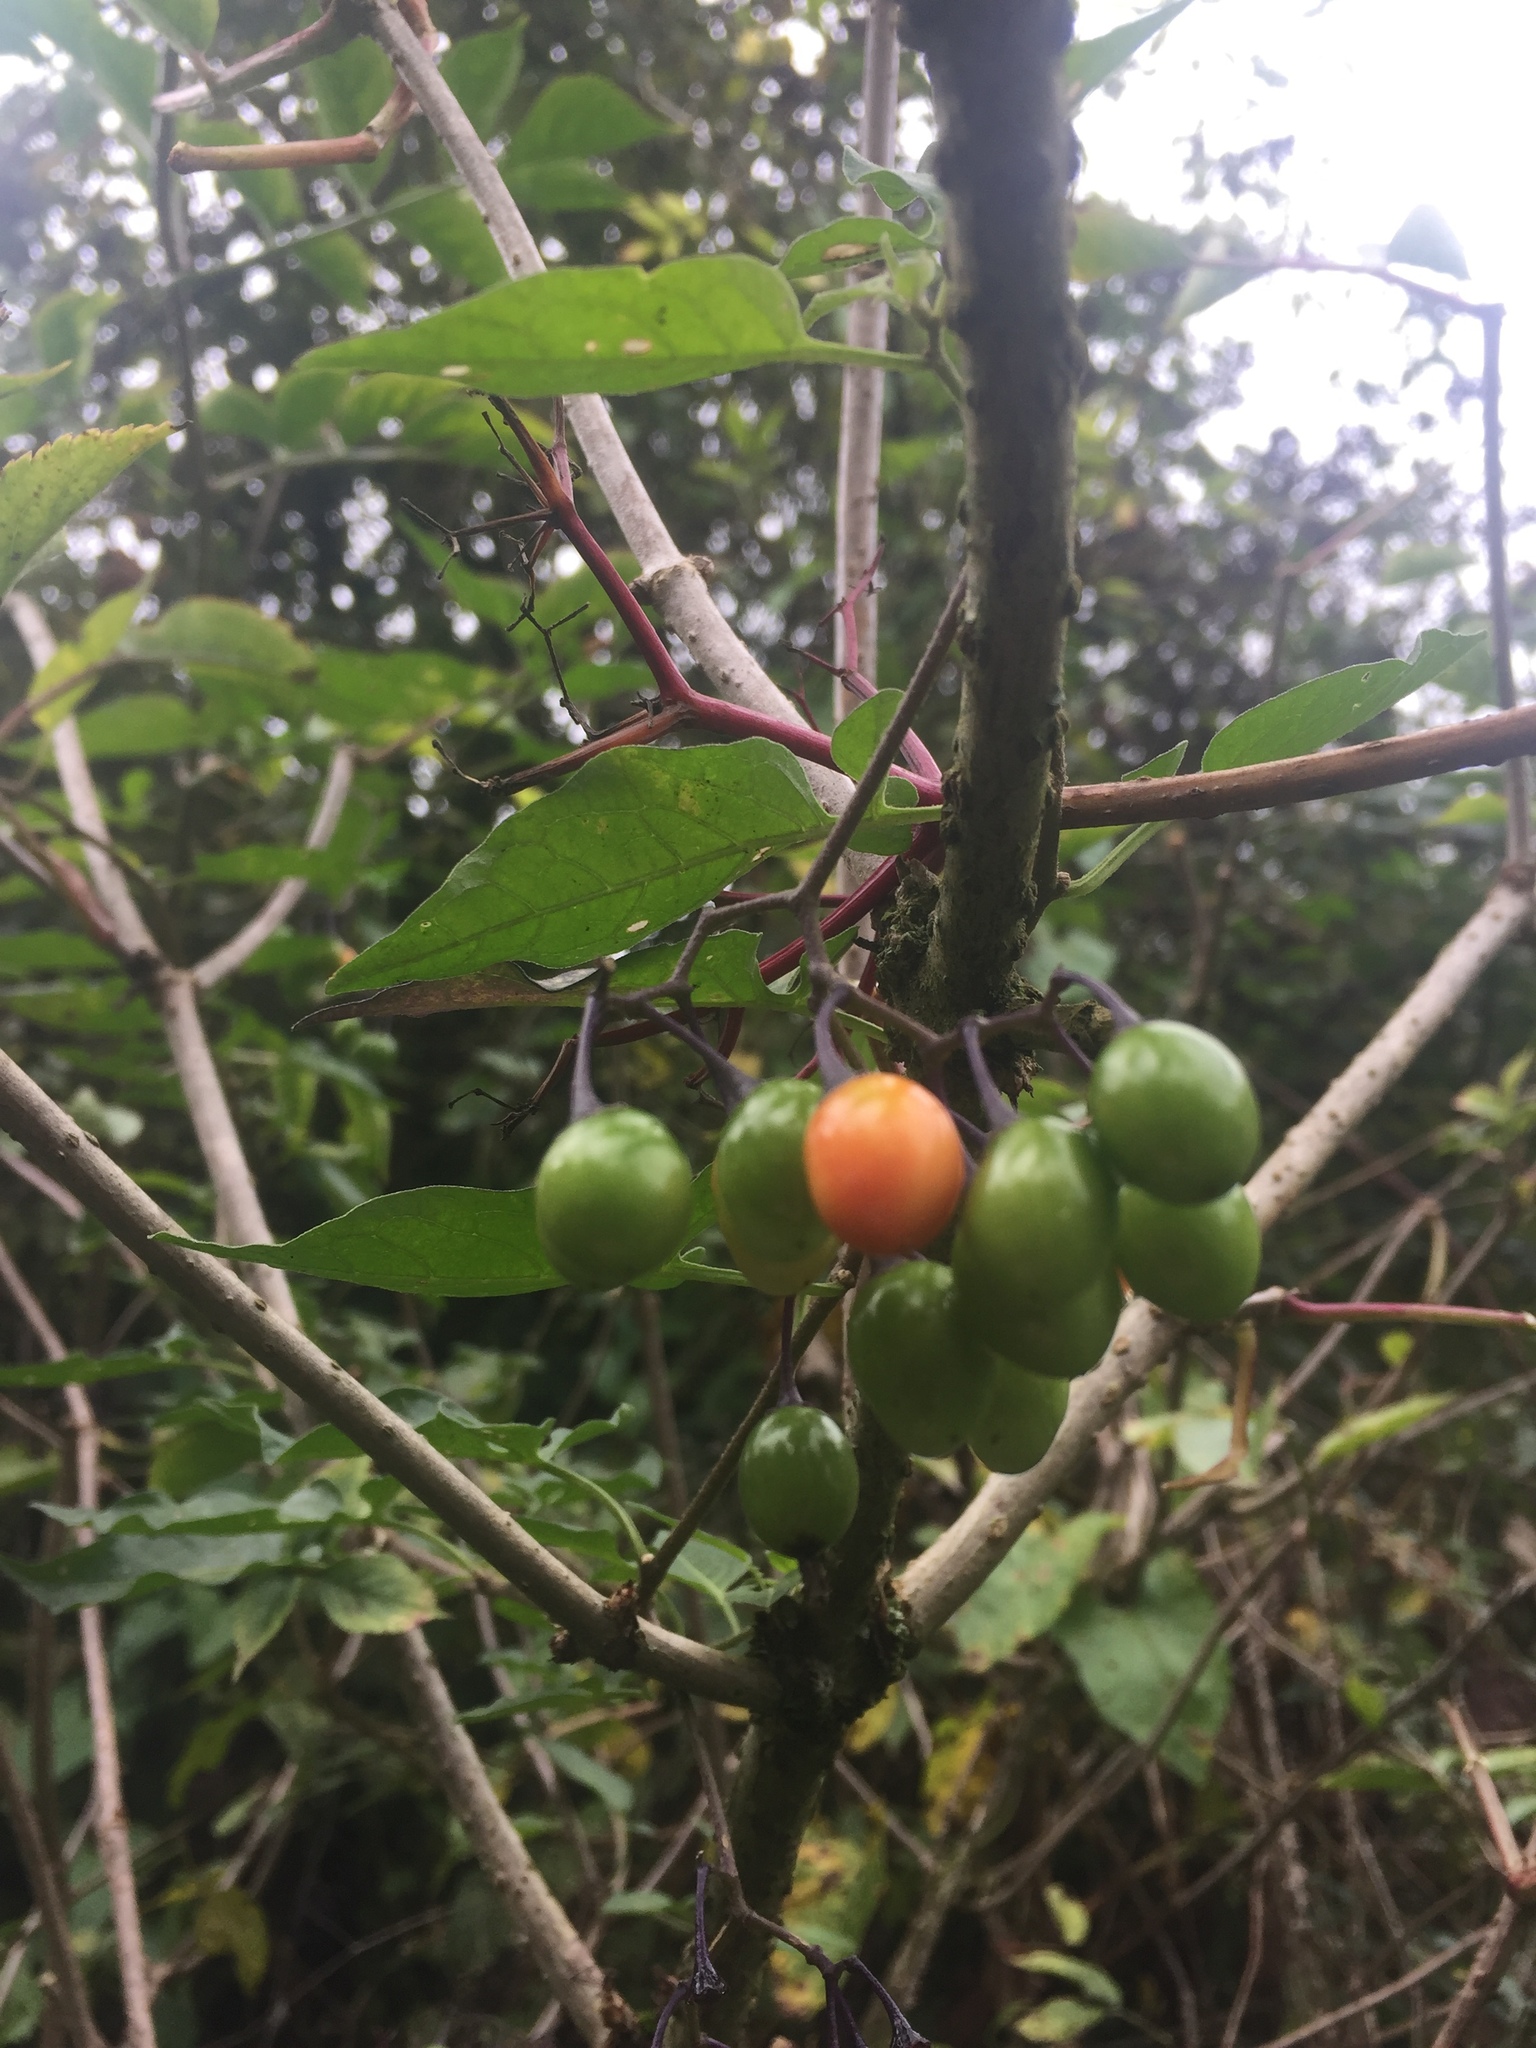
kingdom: Plantae
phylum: Tracheophyta
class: Magnoliopsida
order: Solanales
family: Solanaceae
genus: Solanum
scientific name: Solanum dulcamara
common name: Climbing nightshade
